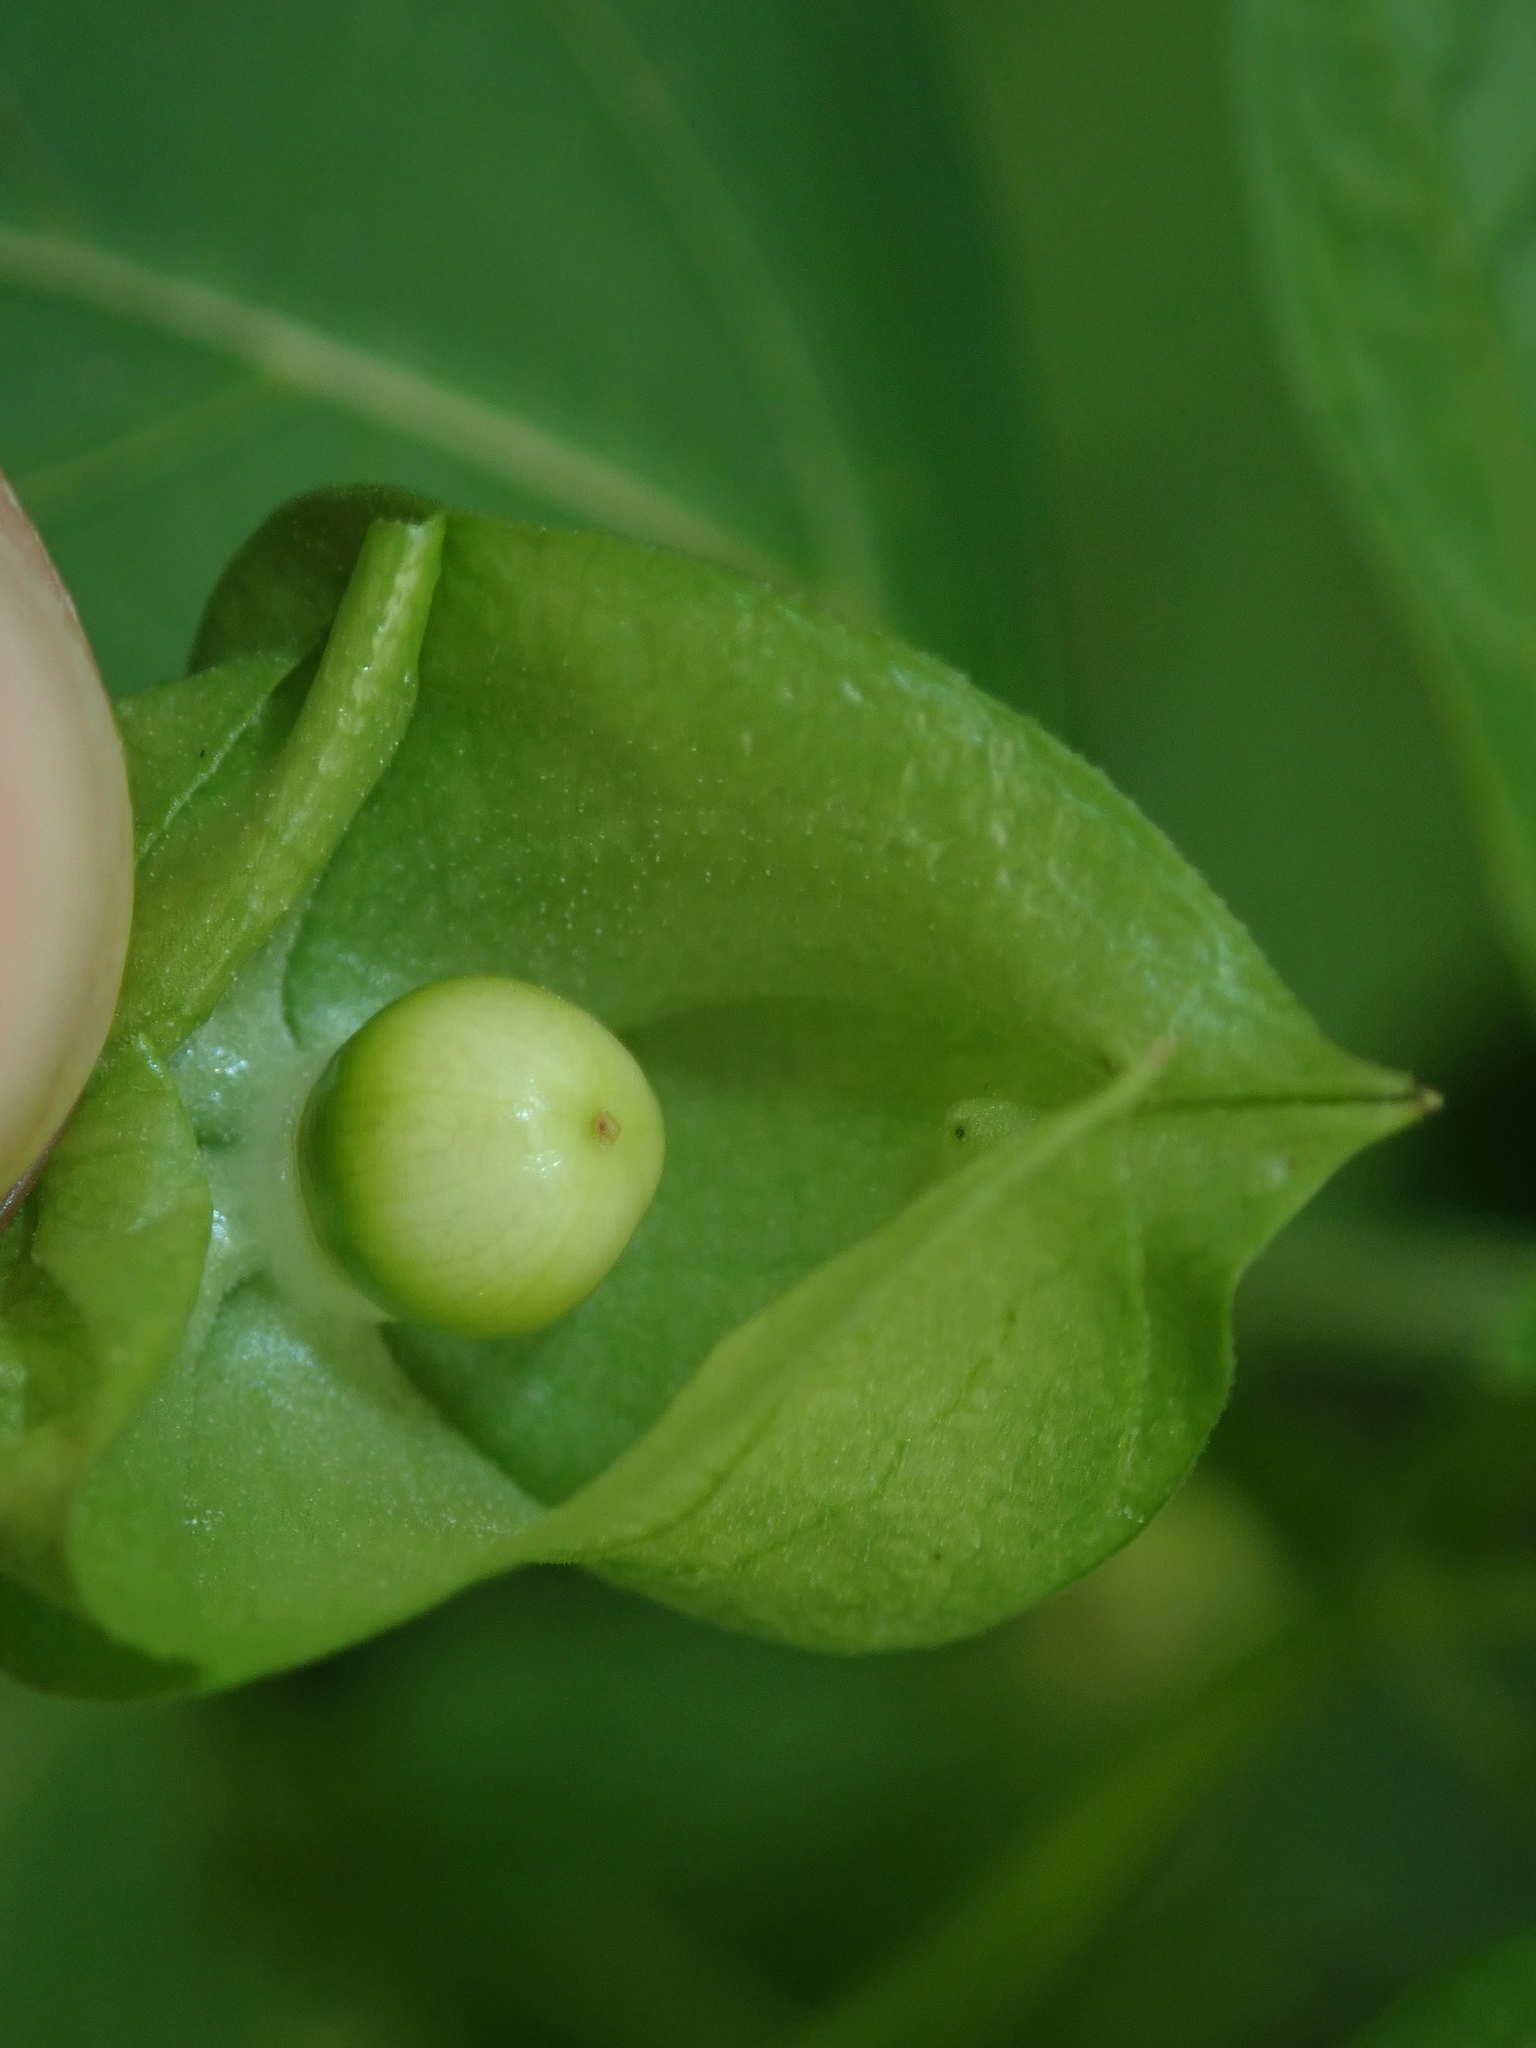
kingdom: Plantae
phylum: Tracheophyta
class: Magnoliopsida
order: Solanales
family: Solanaceae
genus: Nicandra
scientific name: Nicandra physalodes
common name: Apple-of-peru
